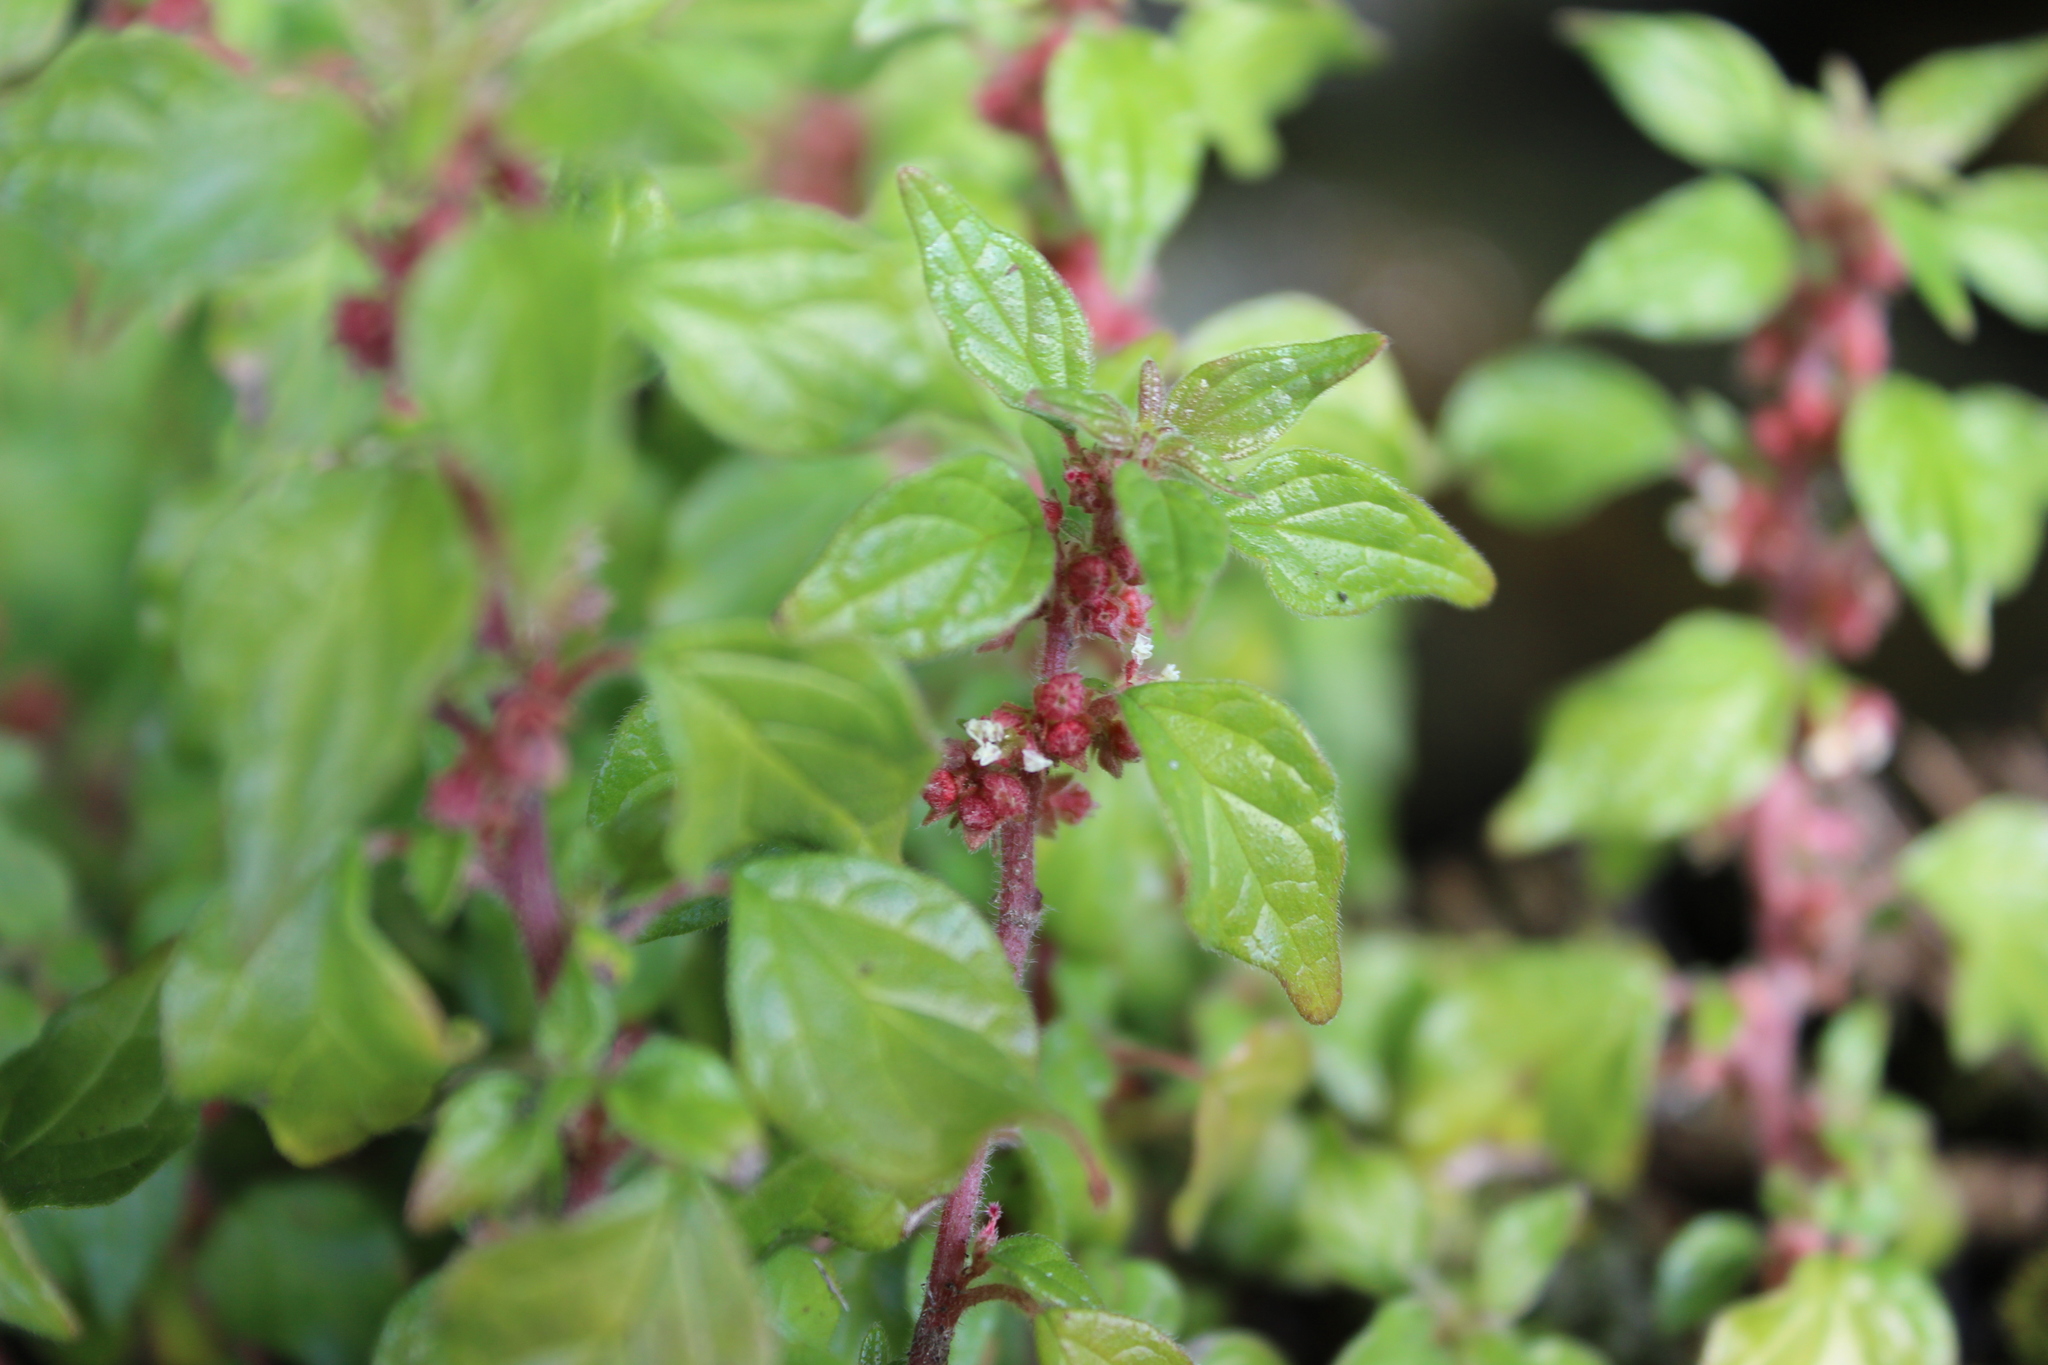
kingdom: Plantae
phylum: Tracheophyta
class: Magnoliopsida
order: Rosales
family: Urticaceae
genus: Parietaria
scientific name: Parietaria judaica
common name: Pellitory-of-the-wall
